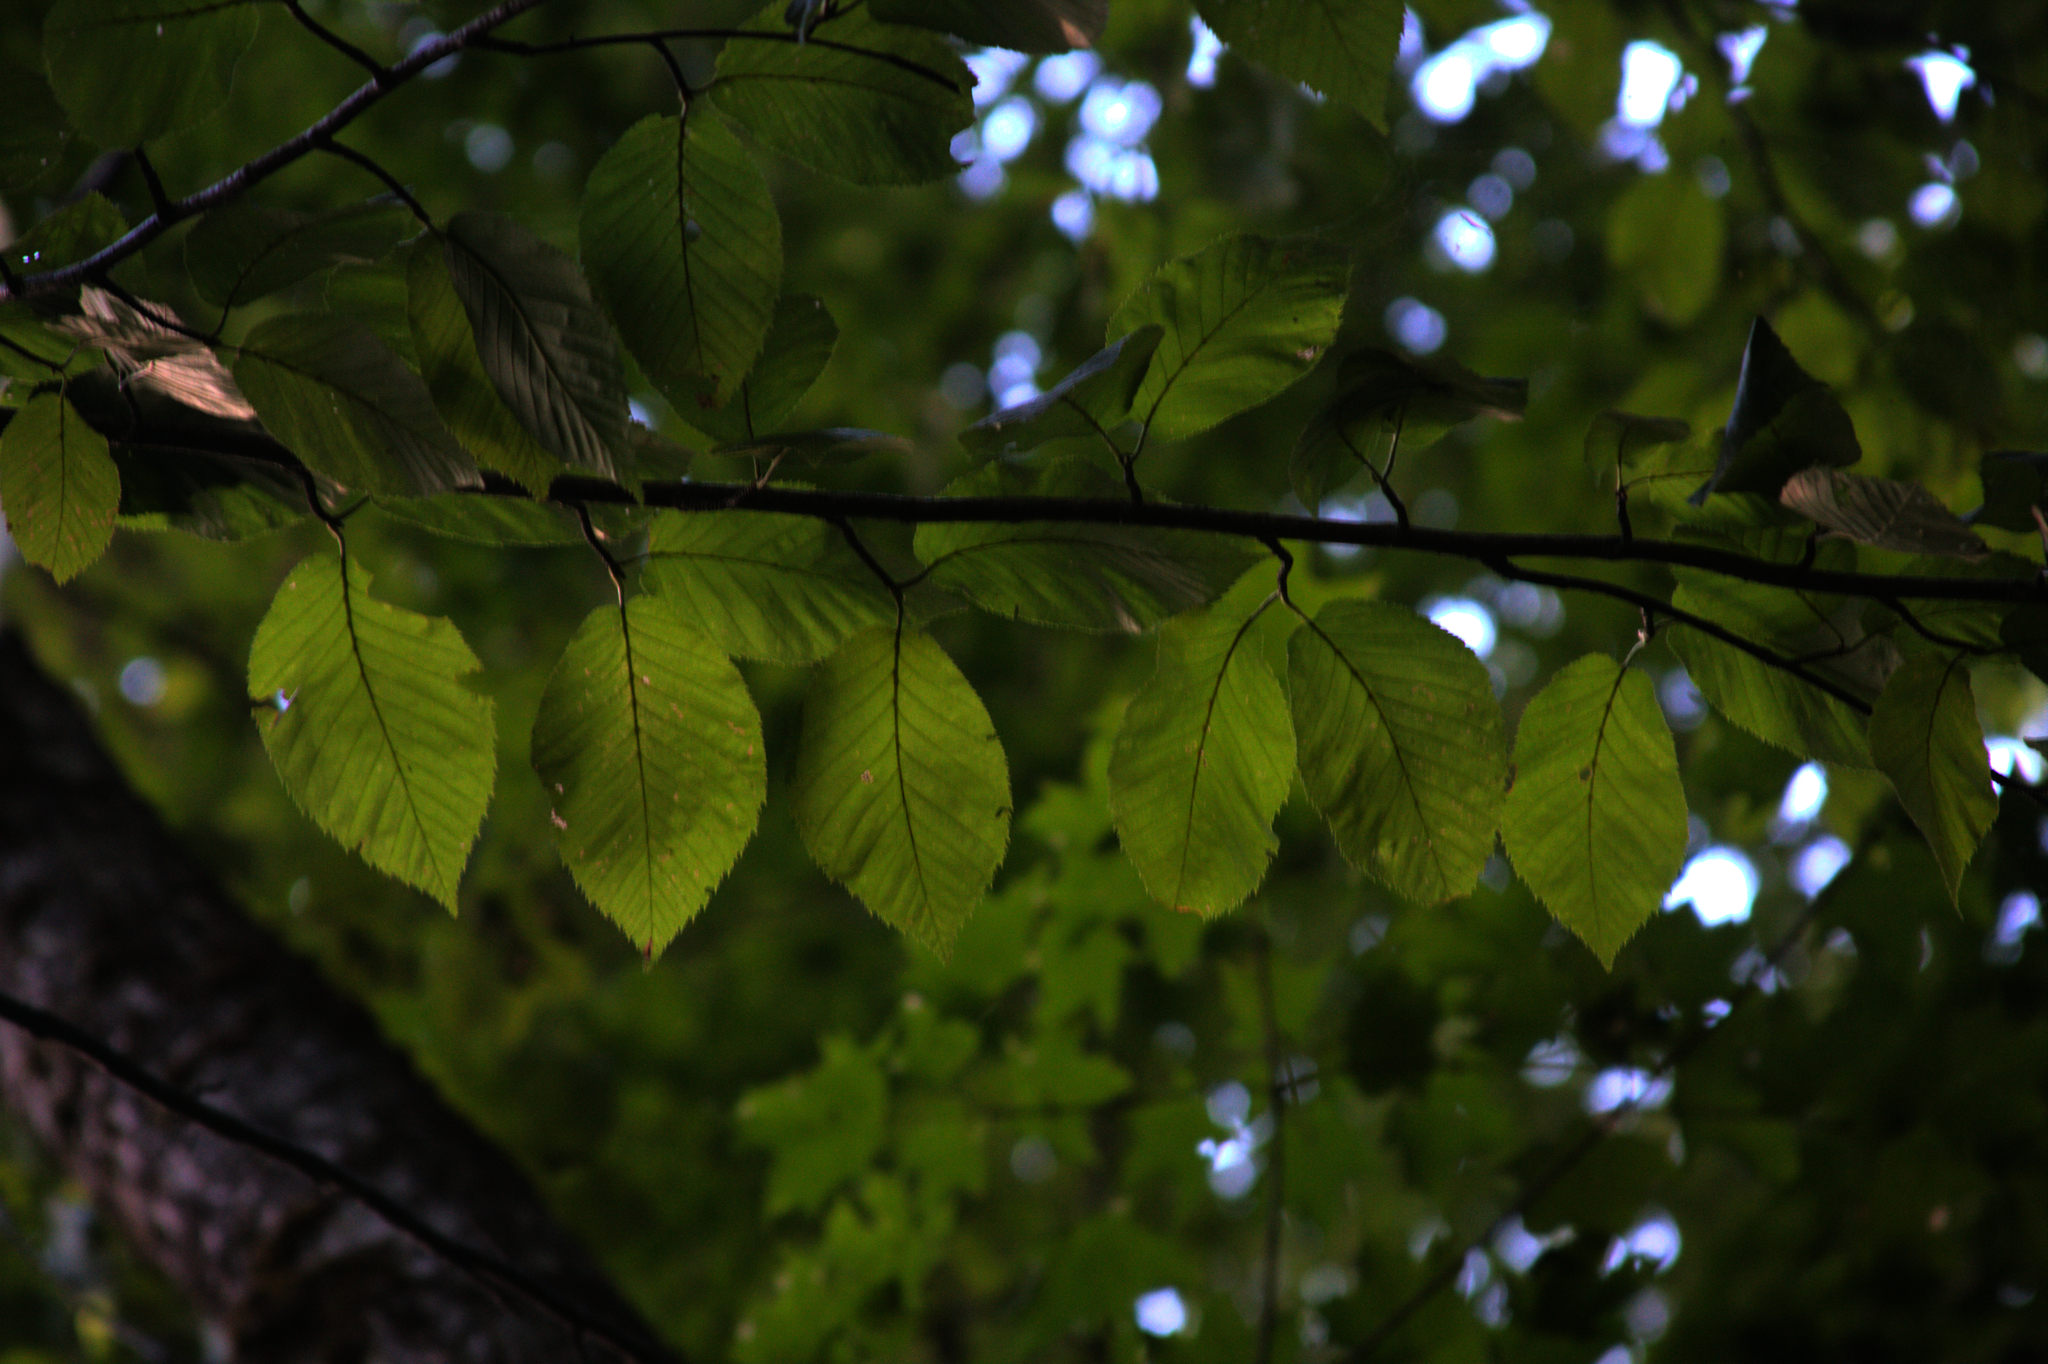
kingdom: Plantae
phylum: Tracheophyta
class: Magnoliopsida
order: Fagales
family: Betulaceae
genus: Betula
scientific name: Betula alleghaniensis
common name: Yellow birch
